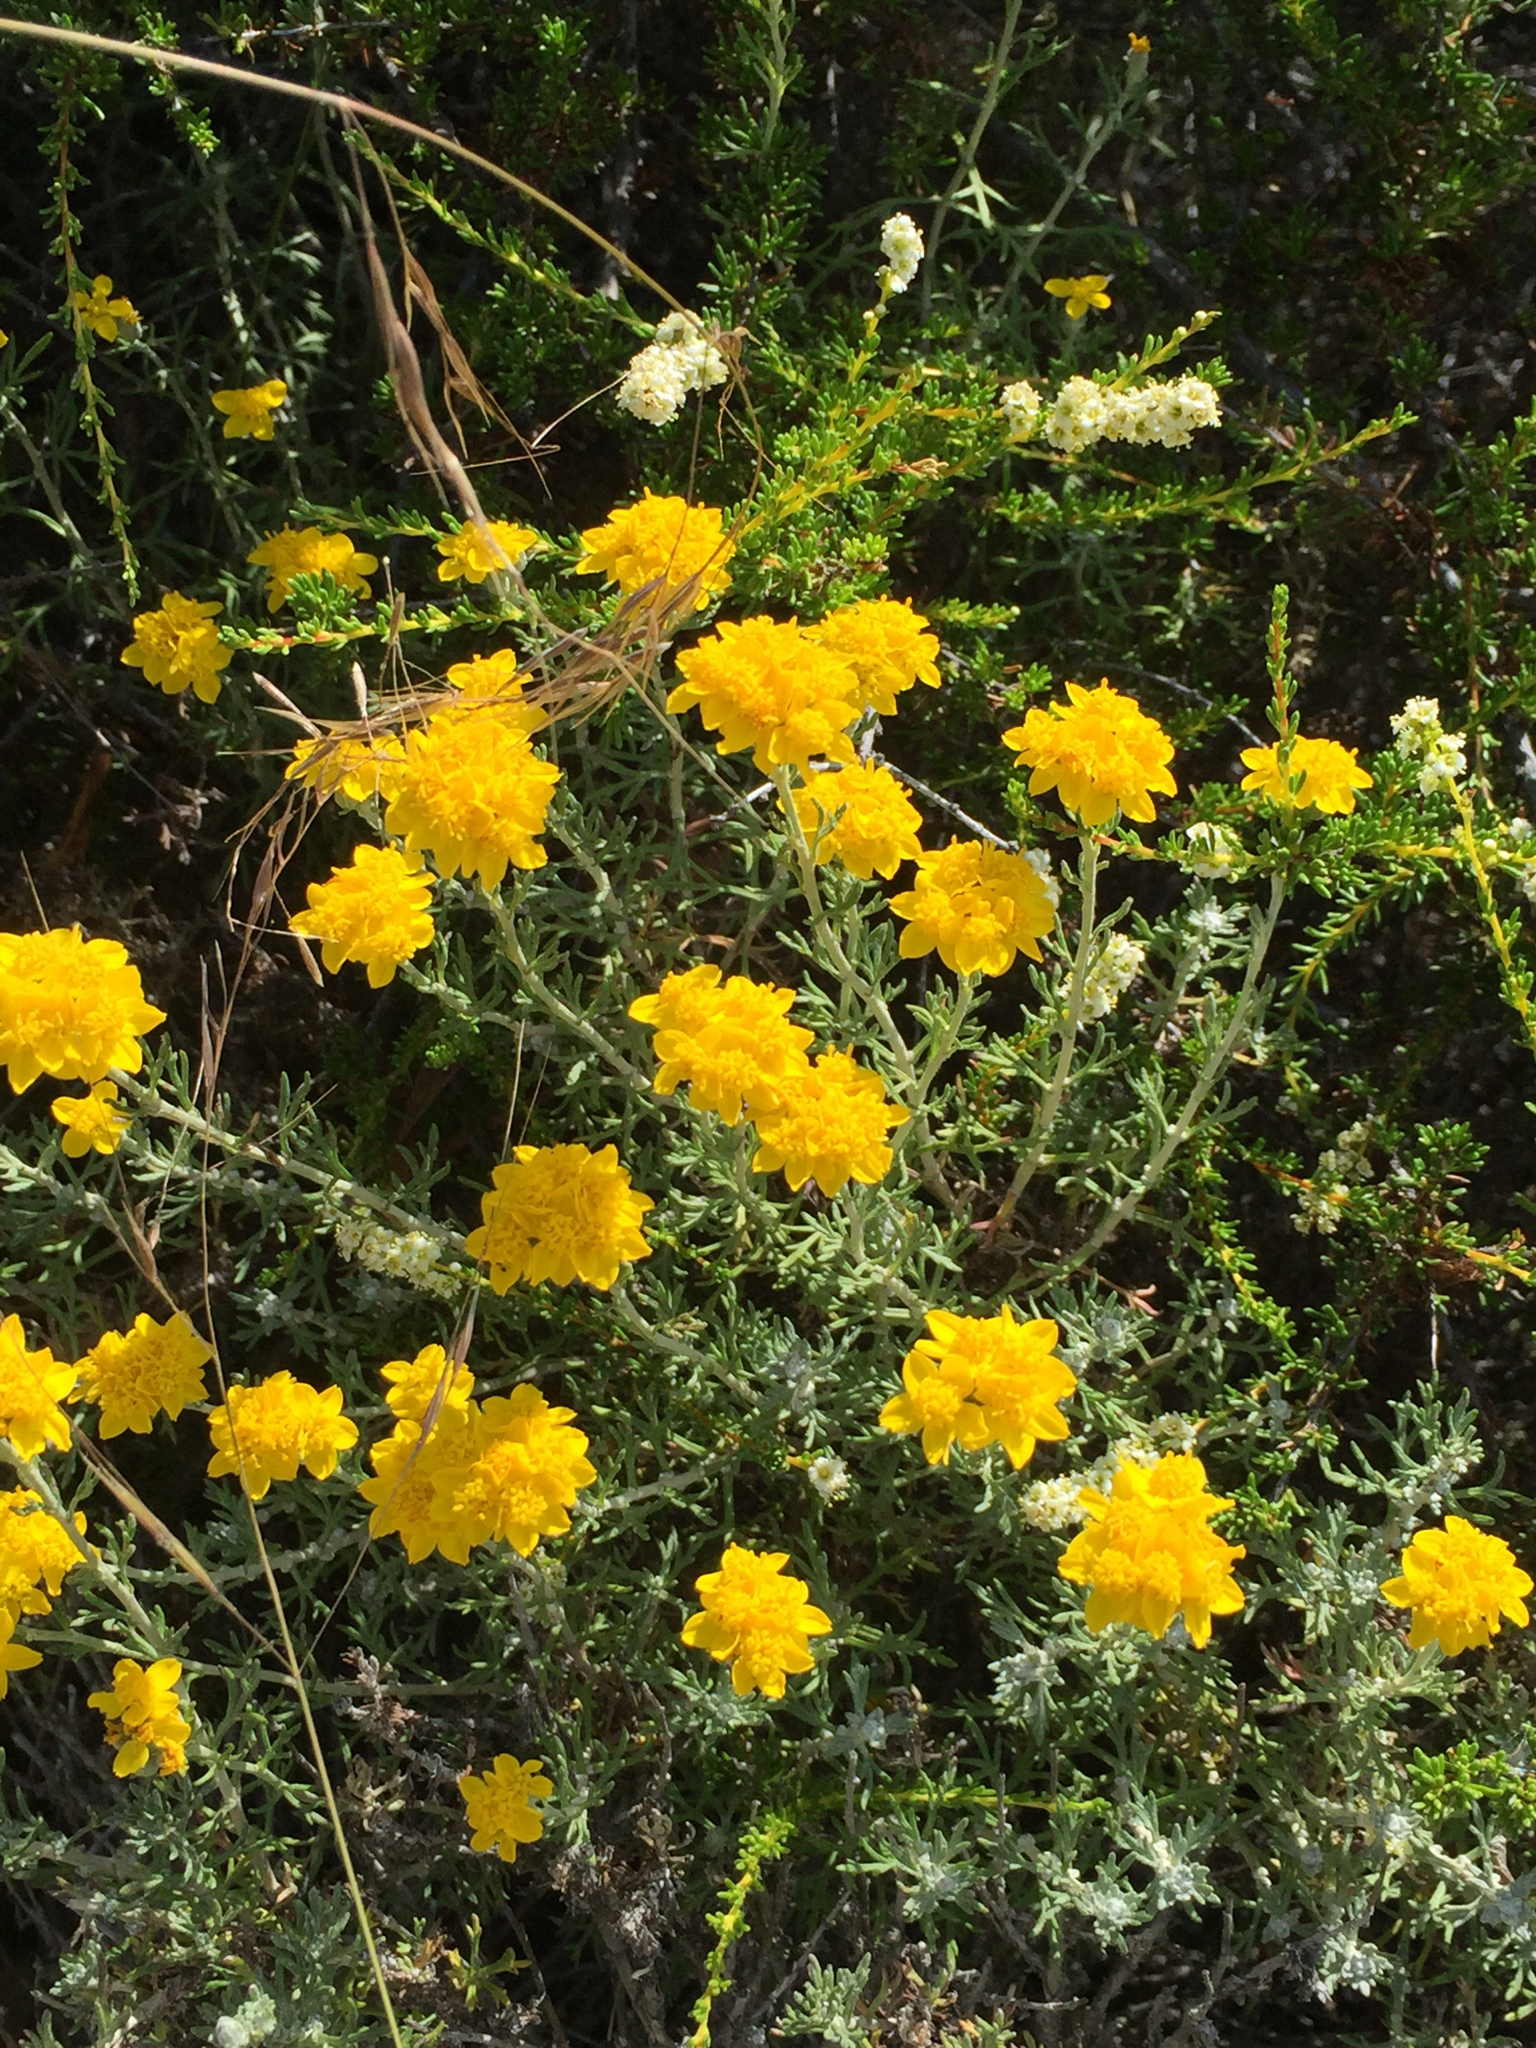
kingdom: Plantae
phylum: Tracheophyta
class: Magnoliopsida
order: Asterales
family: Asteraceae
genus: Eriophyllum
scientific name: Eriophyllum confertiflorum
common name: Golden-yarrow
